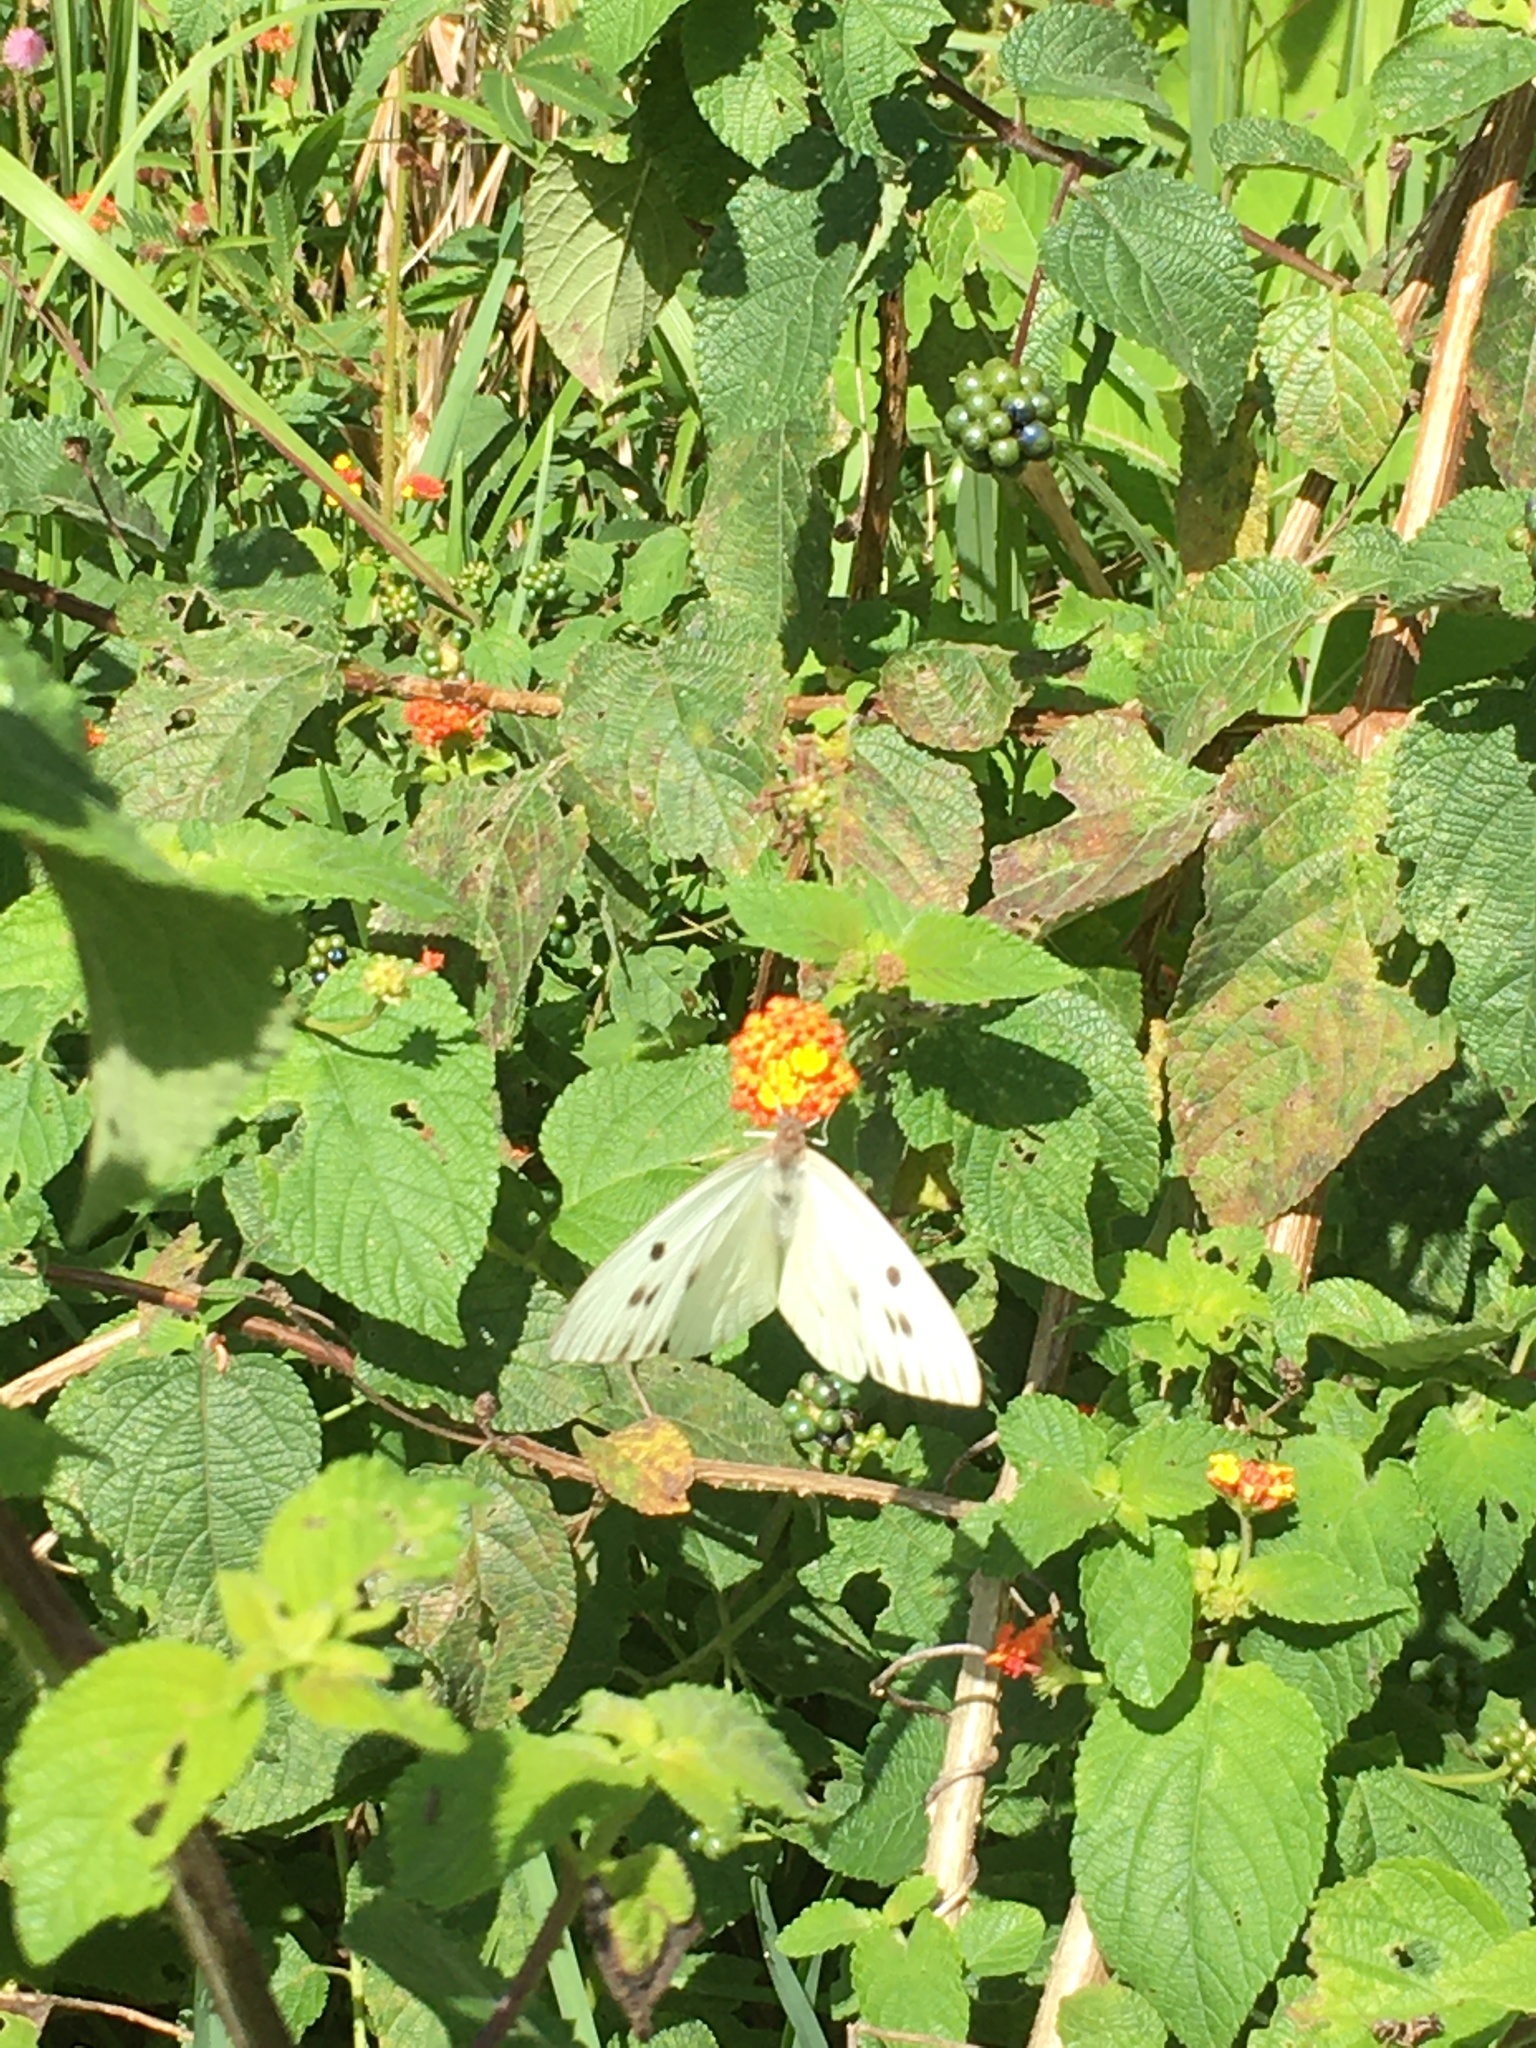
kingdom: Animalia
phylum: Arthropoda
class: Insecta
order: Lepidoptera
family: Pieridae
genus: Ganyra
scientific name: Ganyra josephina
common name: Giant white
